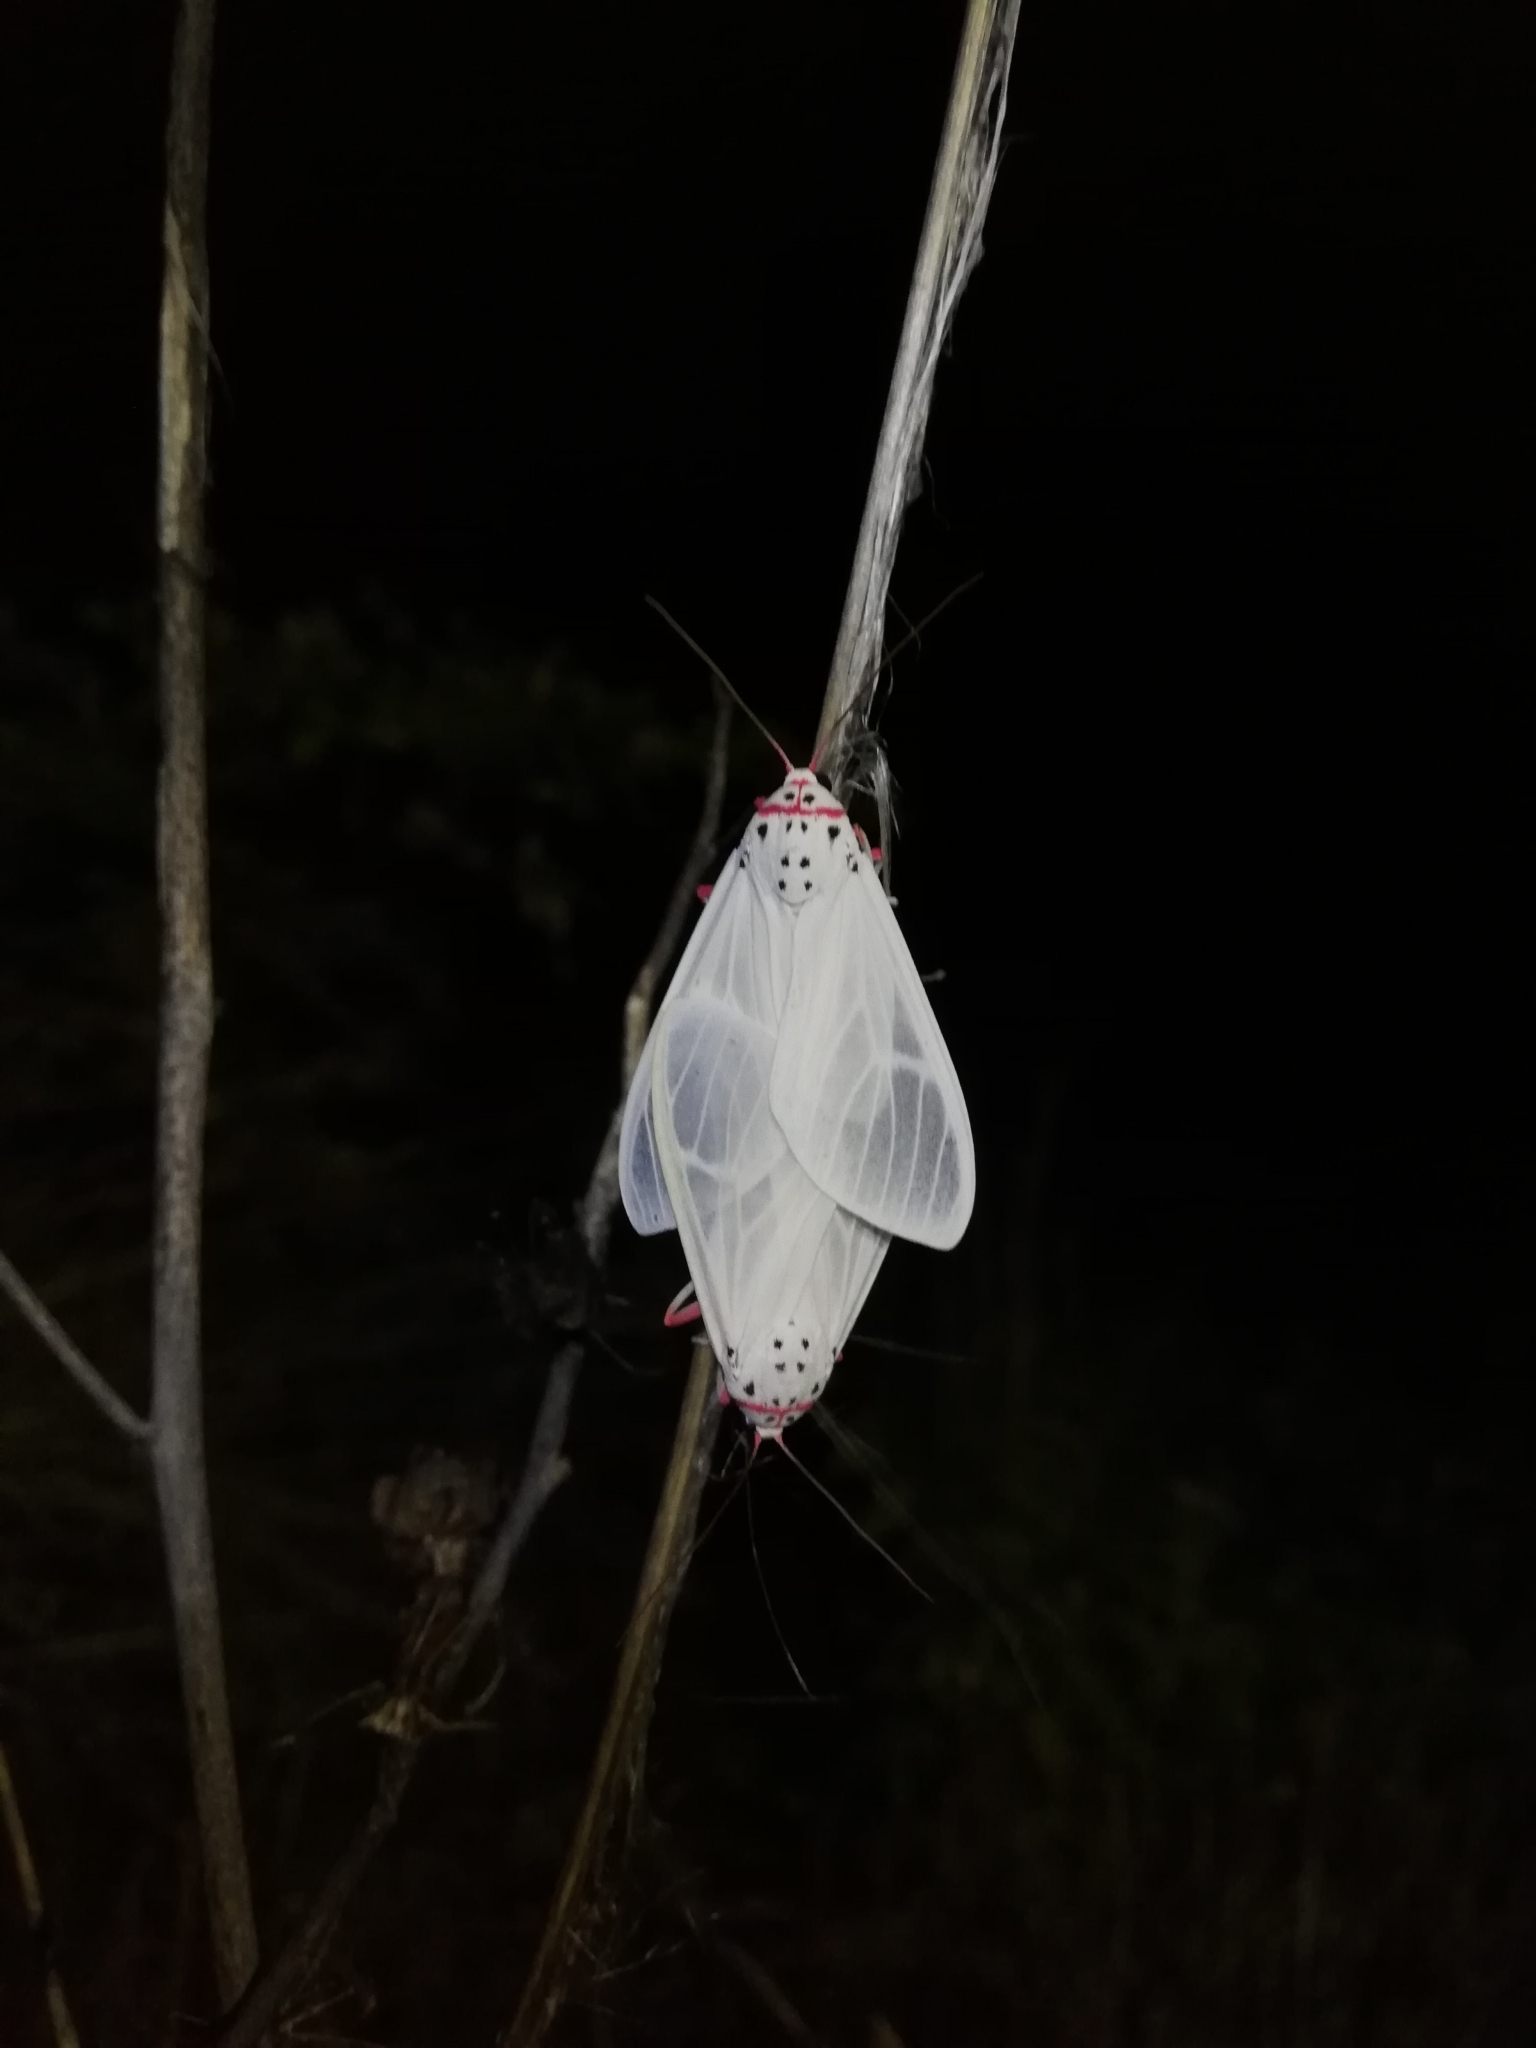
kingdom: Animalia
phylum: Arthropoda
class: Insecta
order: Lepidoptera
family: Erebidae
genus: Amerila
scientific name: Amerila rubripes
